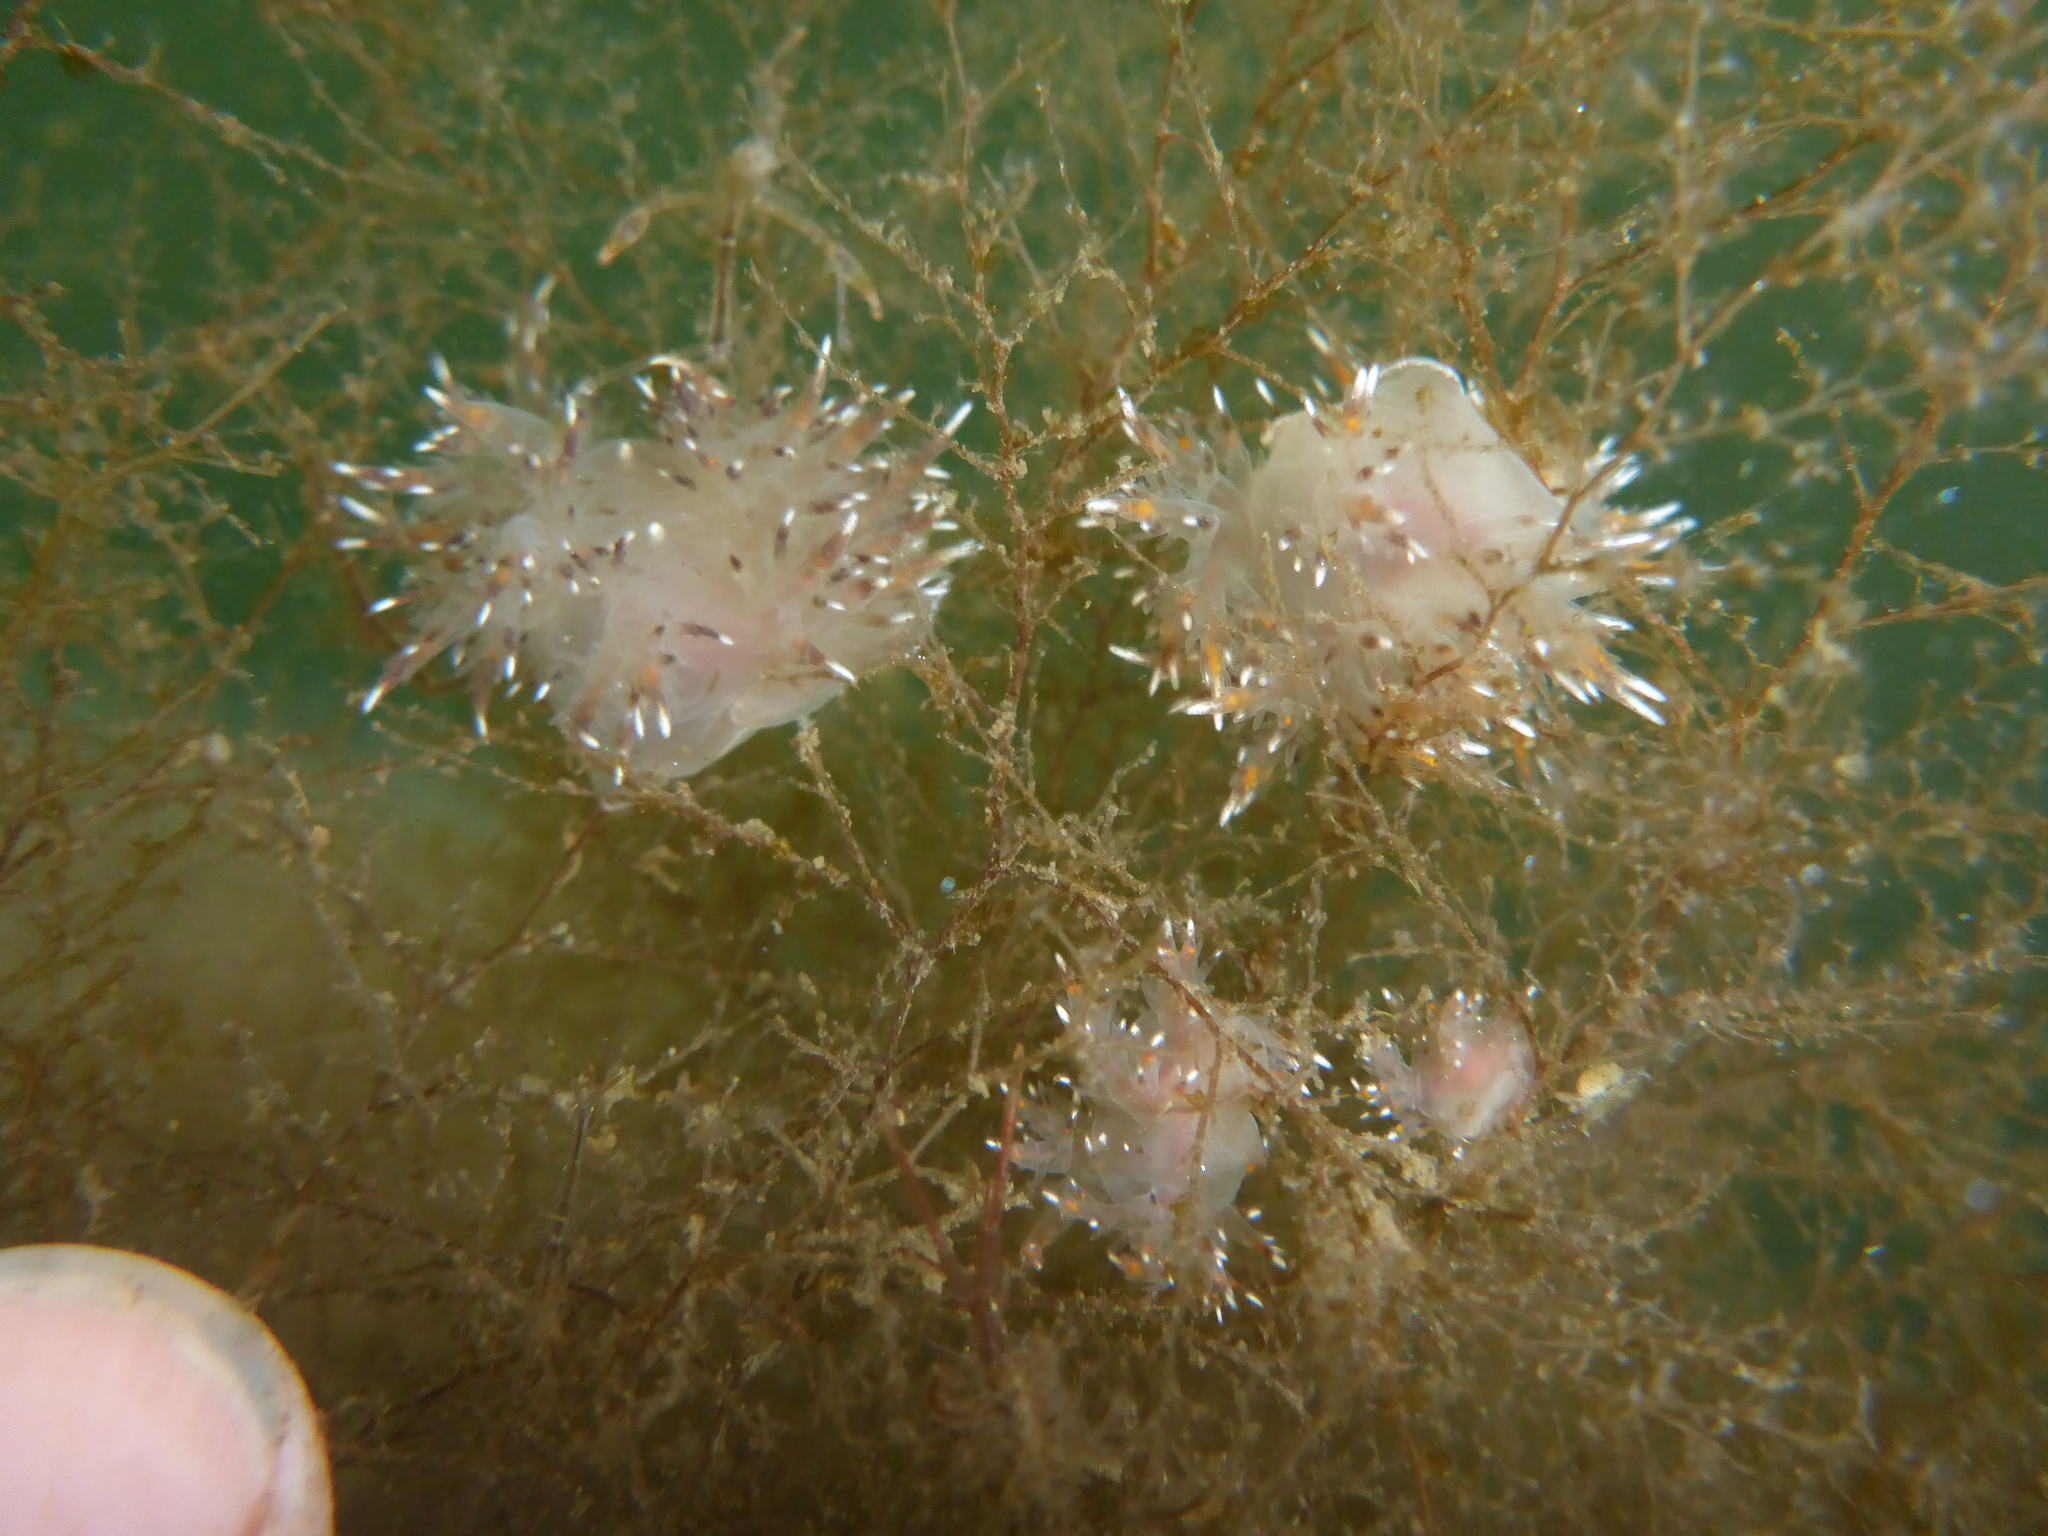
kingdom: Animalia
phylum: Mollusca
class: Gastropoda
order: Nudibranchia
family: Dendronotidae
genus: Dendronotus
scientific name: Dendronotus iris
